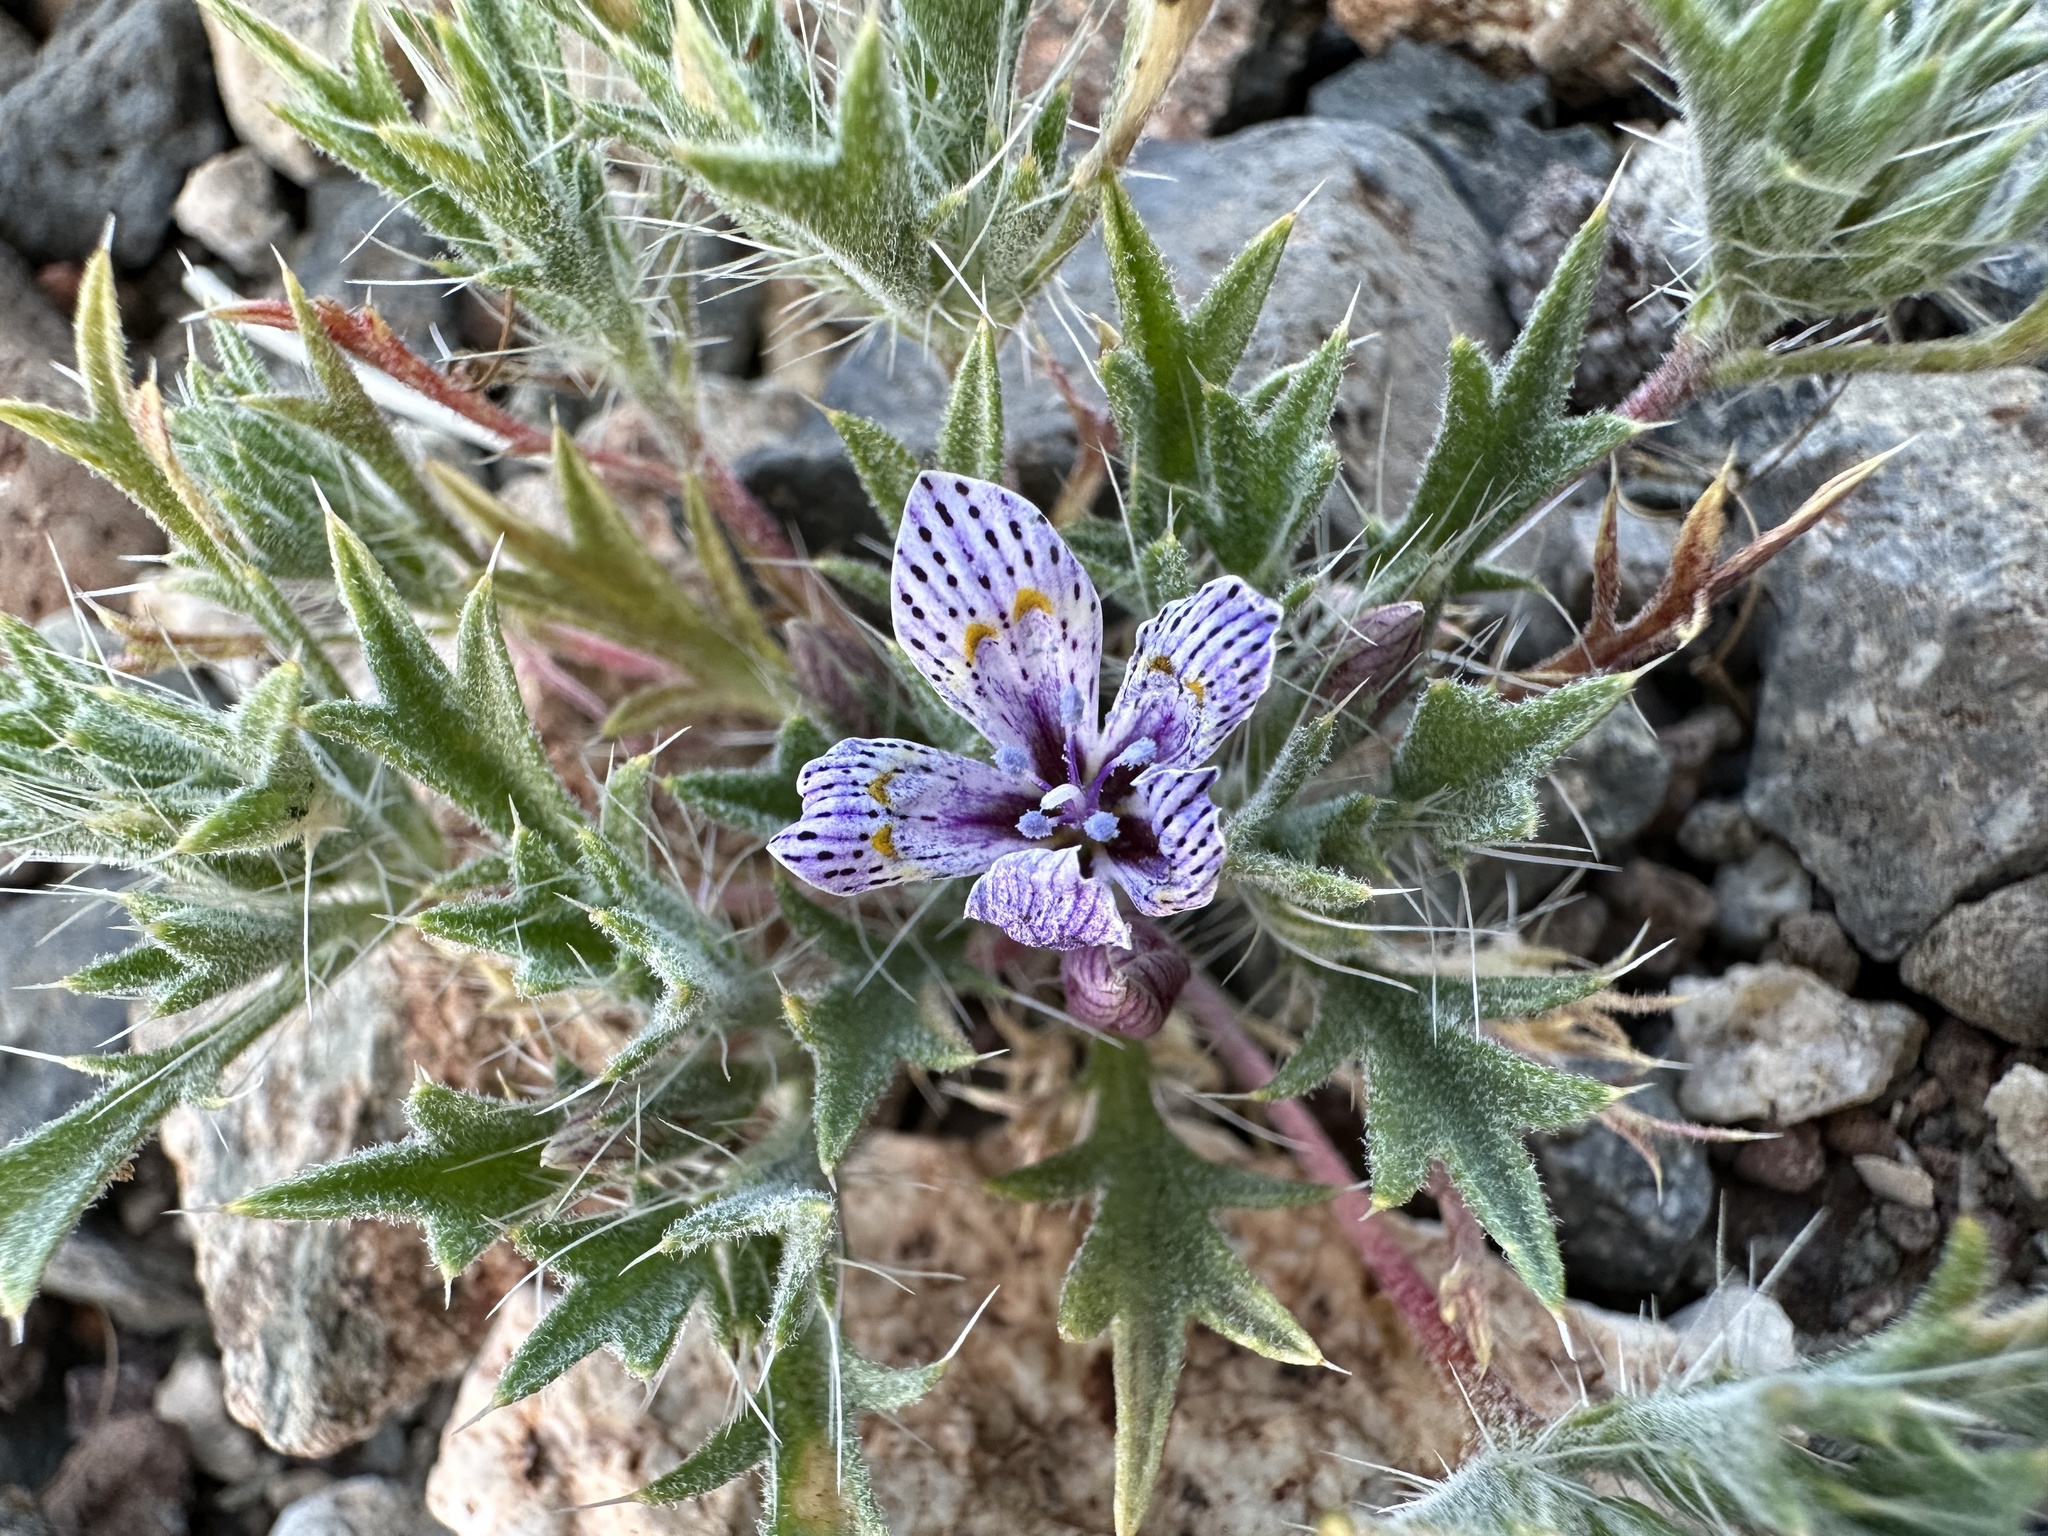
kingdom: Plantae
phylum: Tracheophyta
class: Magnoliopsida
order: Ericales
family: Polemoniaceae
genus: Langloisia
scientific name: Langloisia setosissima
